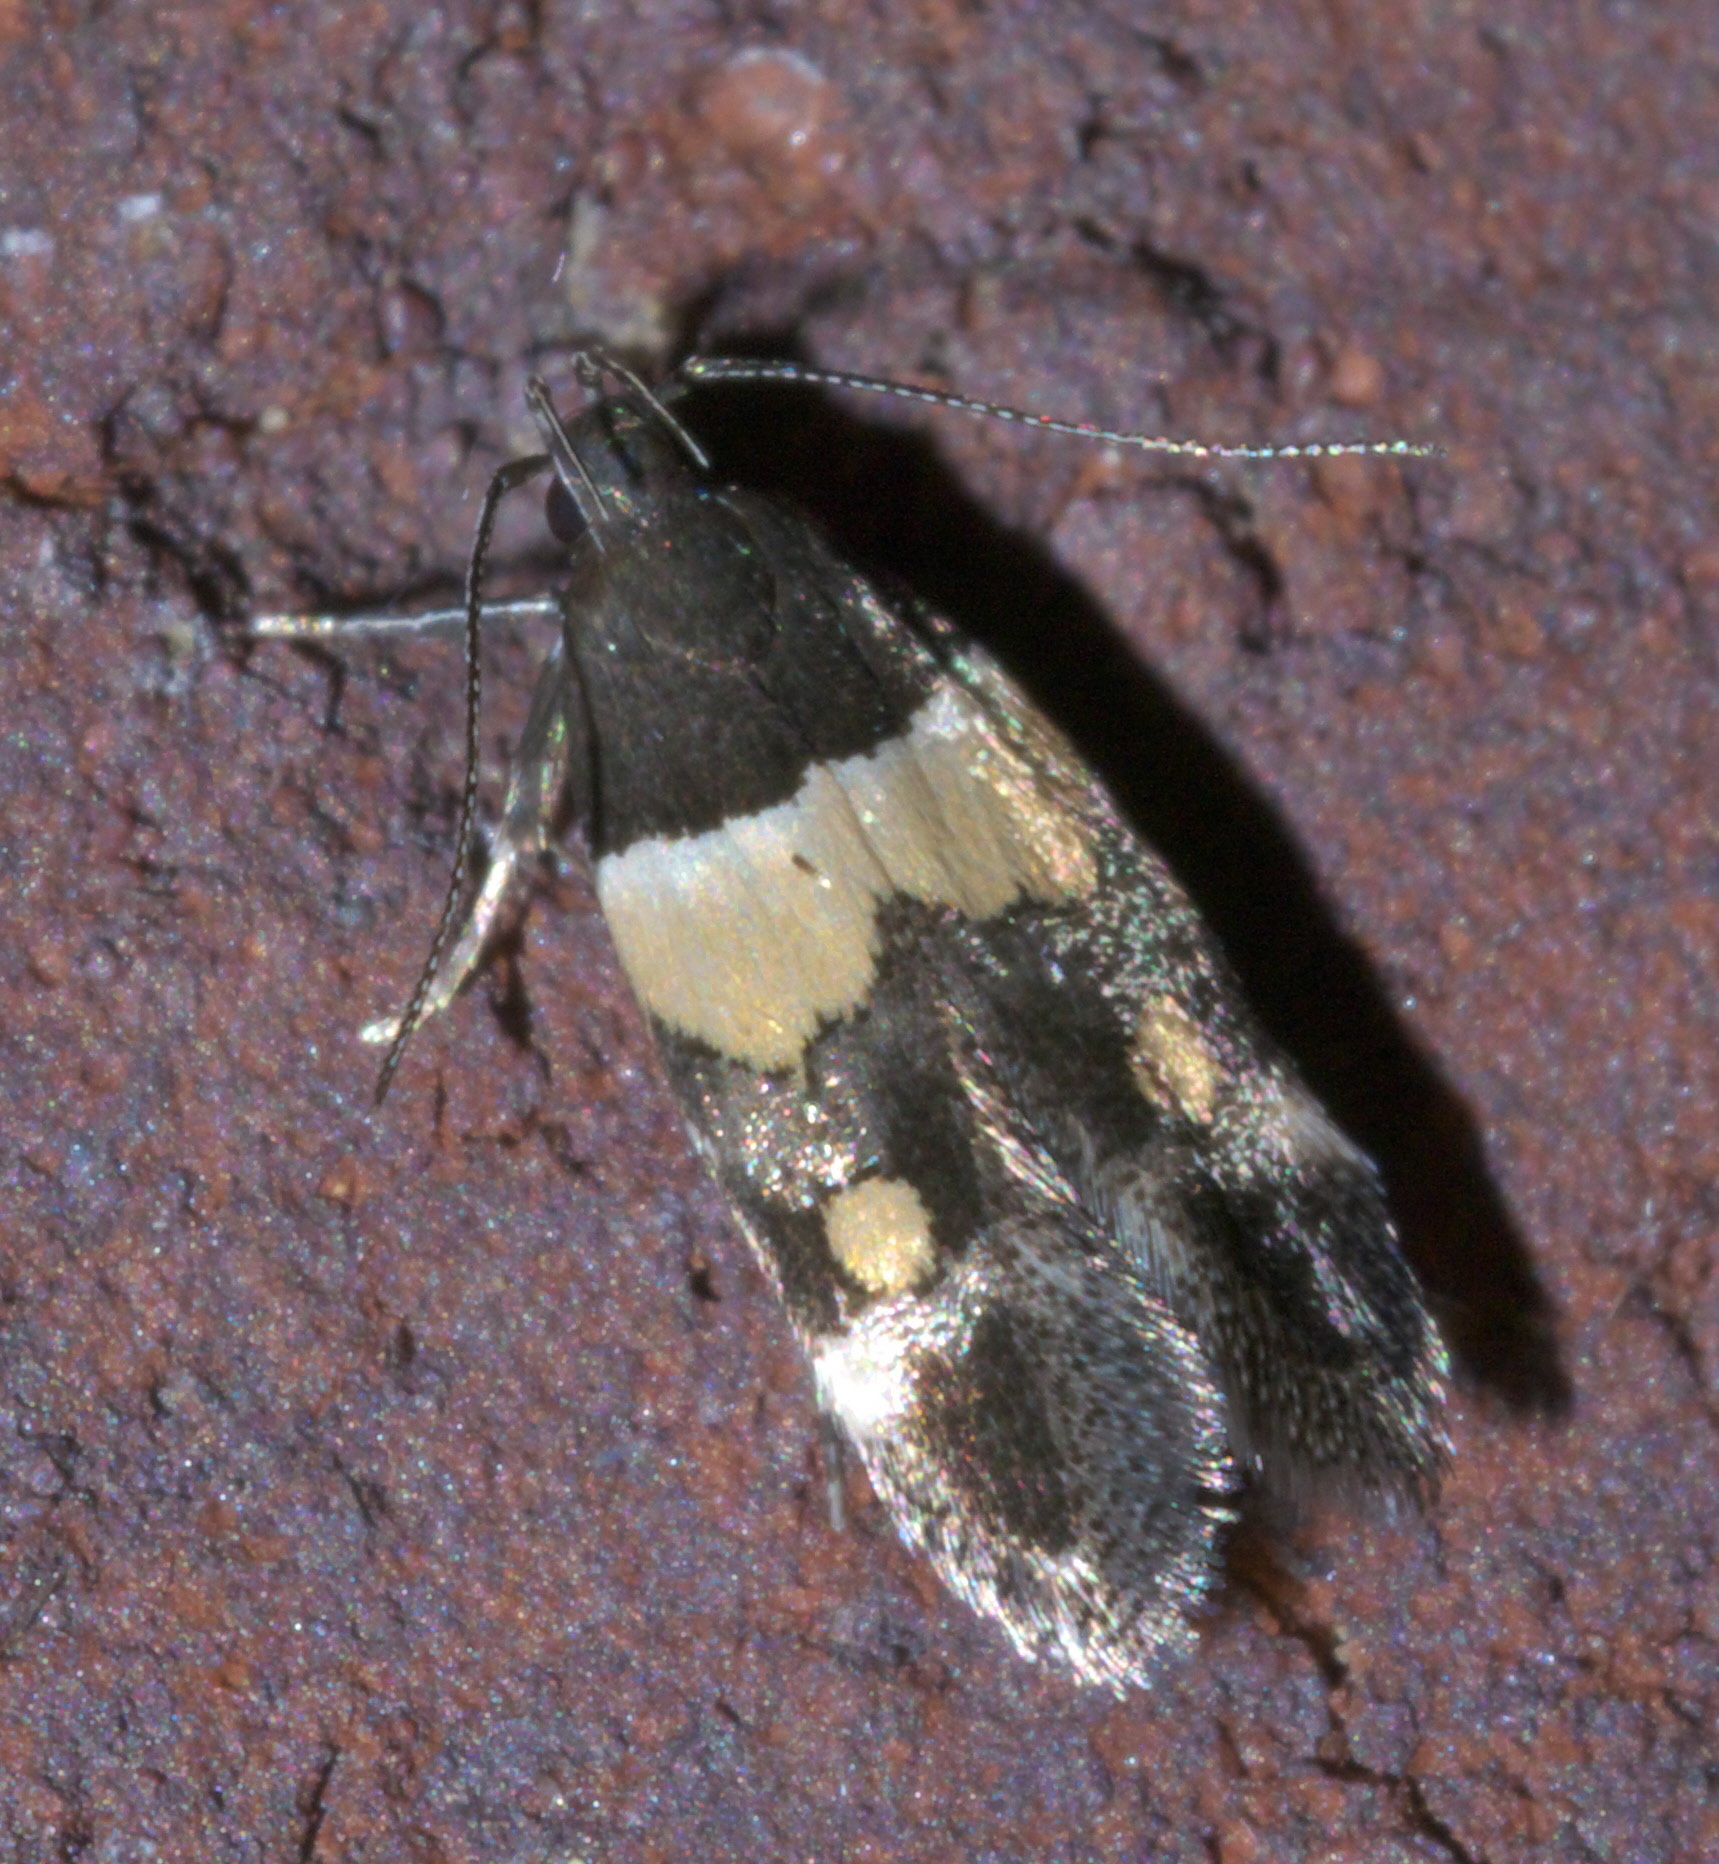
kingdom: Animalia
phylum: Arthropoda
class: Insecta
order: Lepidoptera
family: Momphidae
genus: Triclonella
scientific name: Triclonella determinatella
